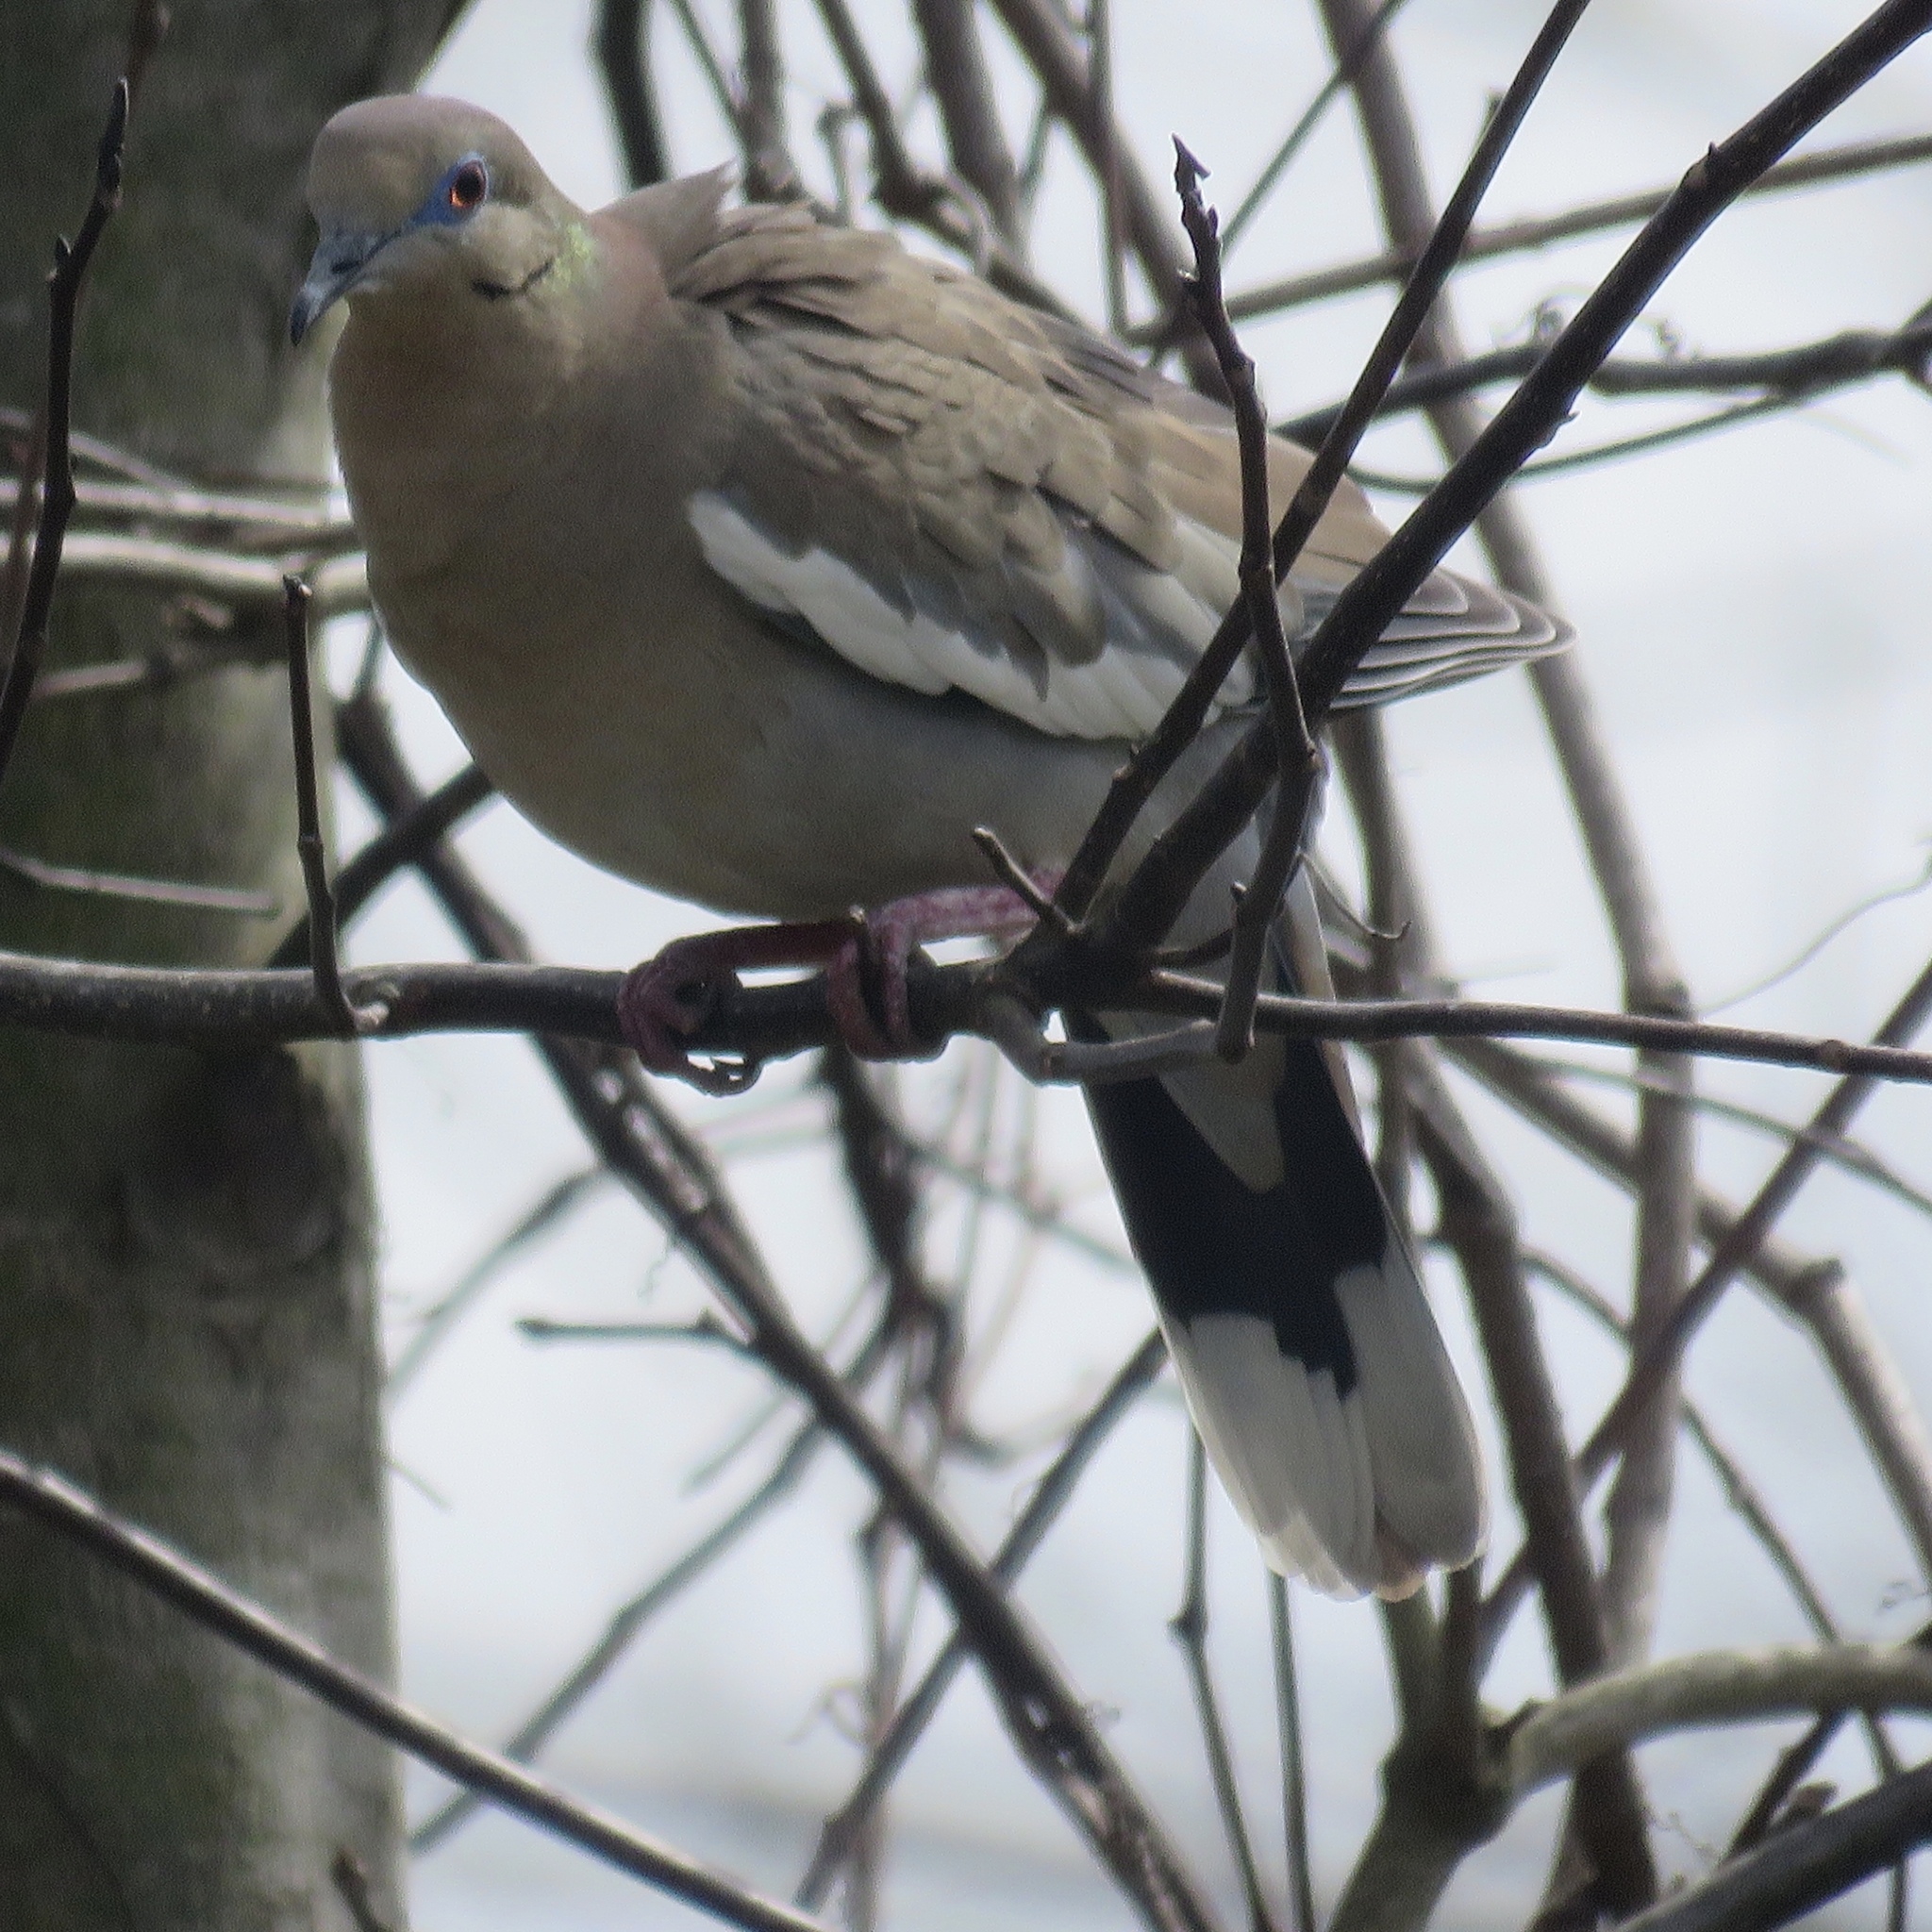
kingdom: Animalia
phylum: Chordata
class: Aves
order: Columbiformes
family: Columbidae
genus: Zenaida
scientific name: Zenaida asiatica
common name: White-winged dove
